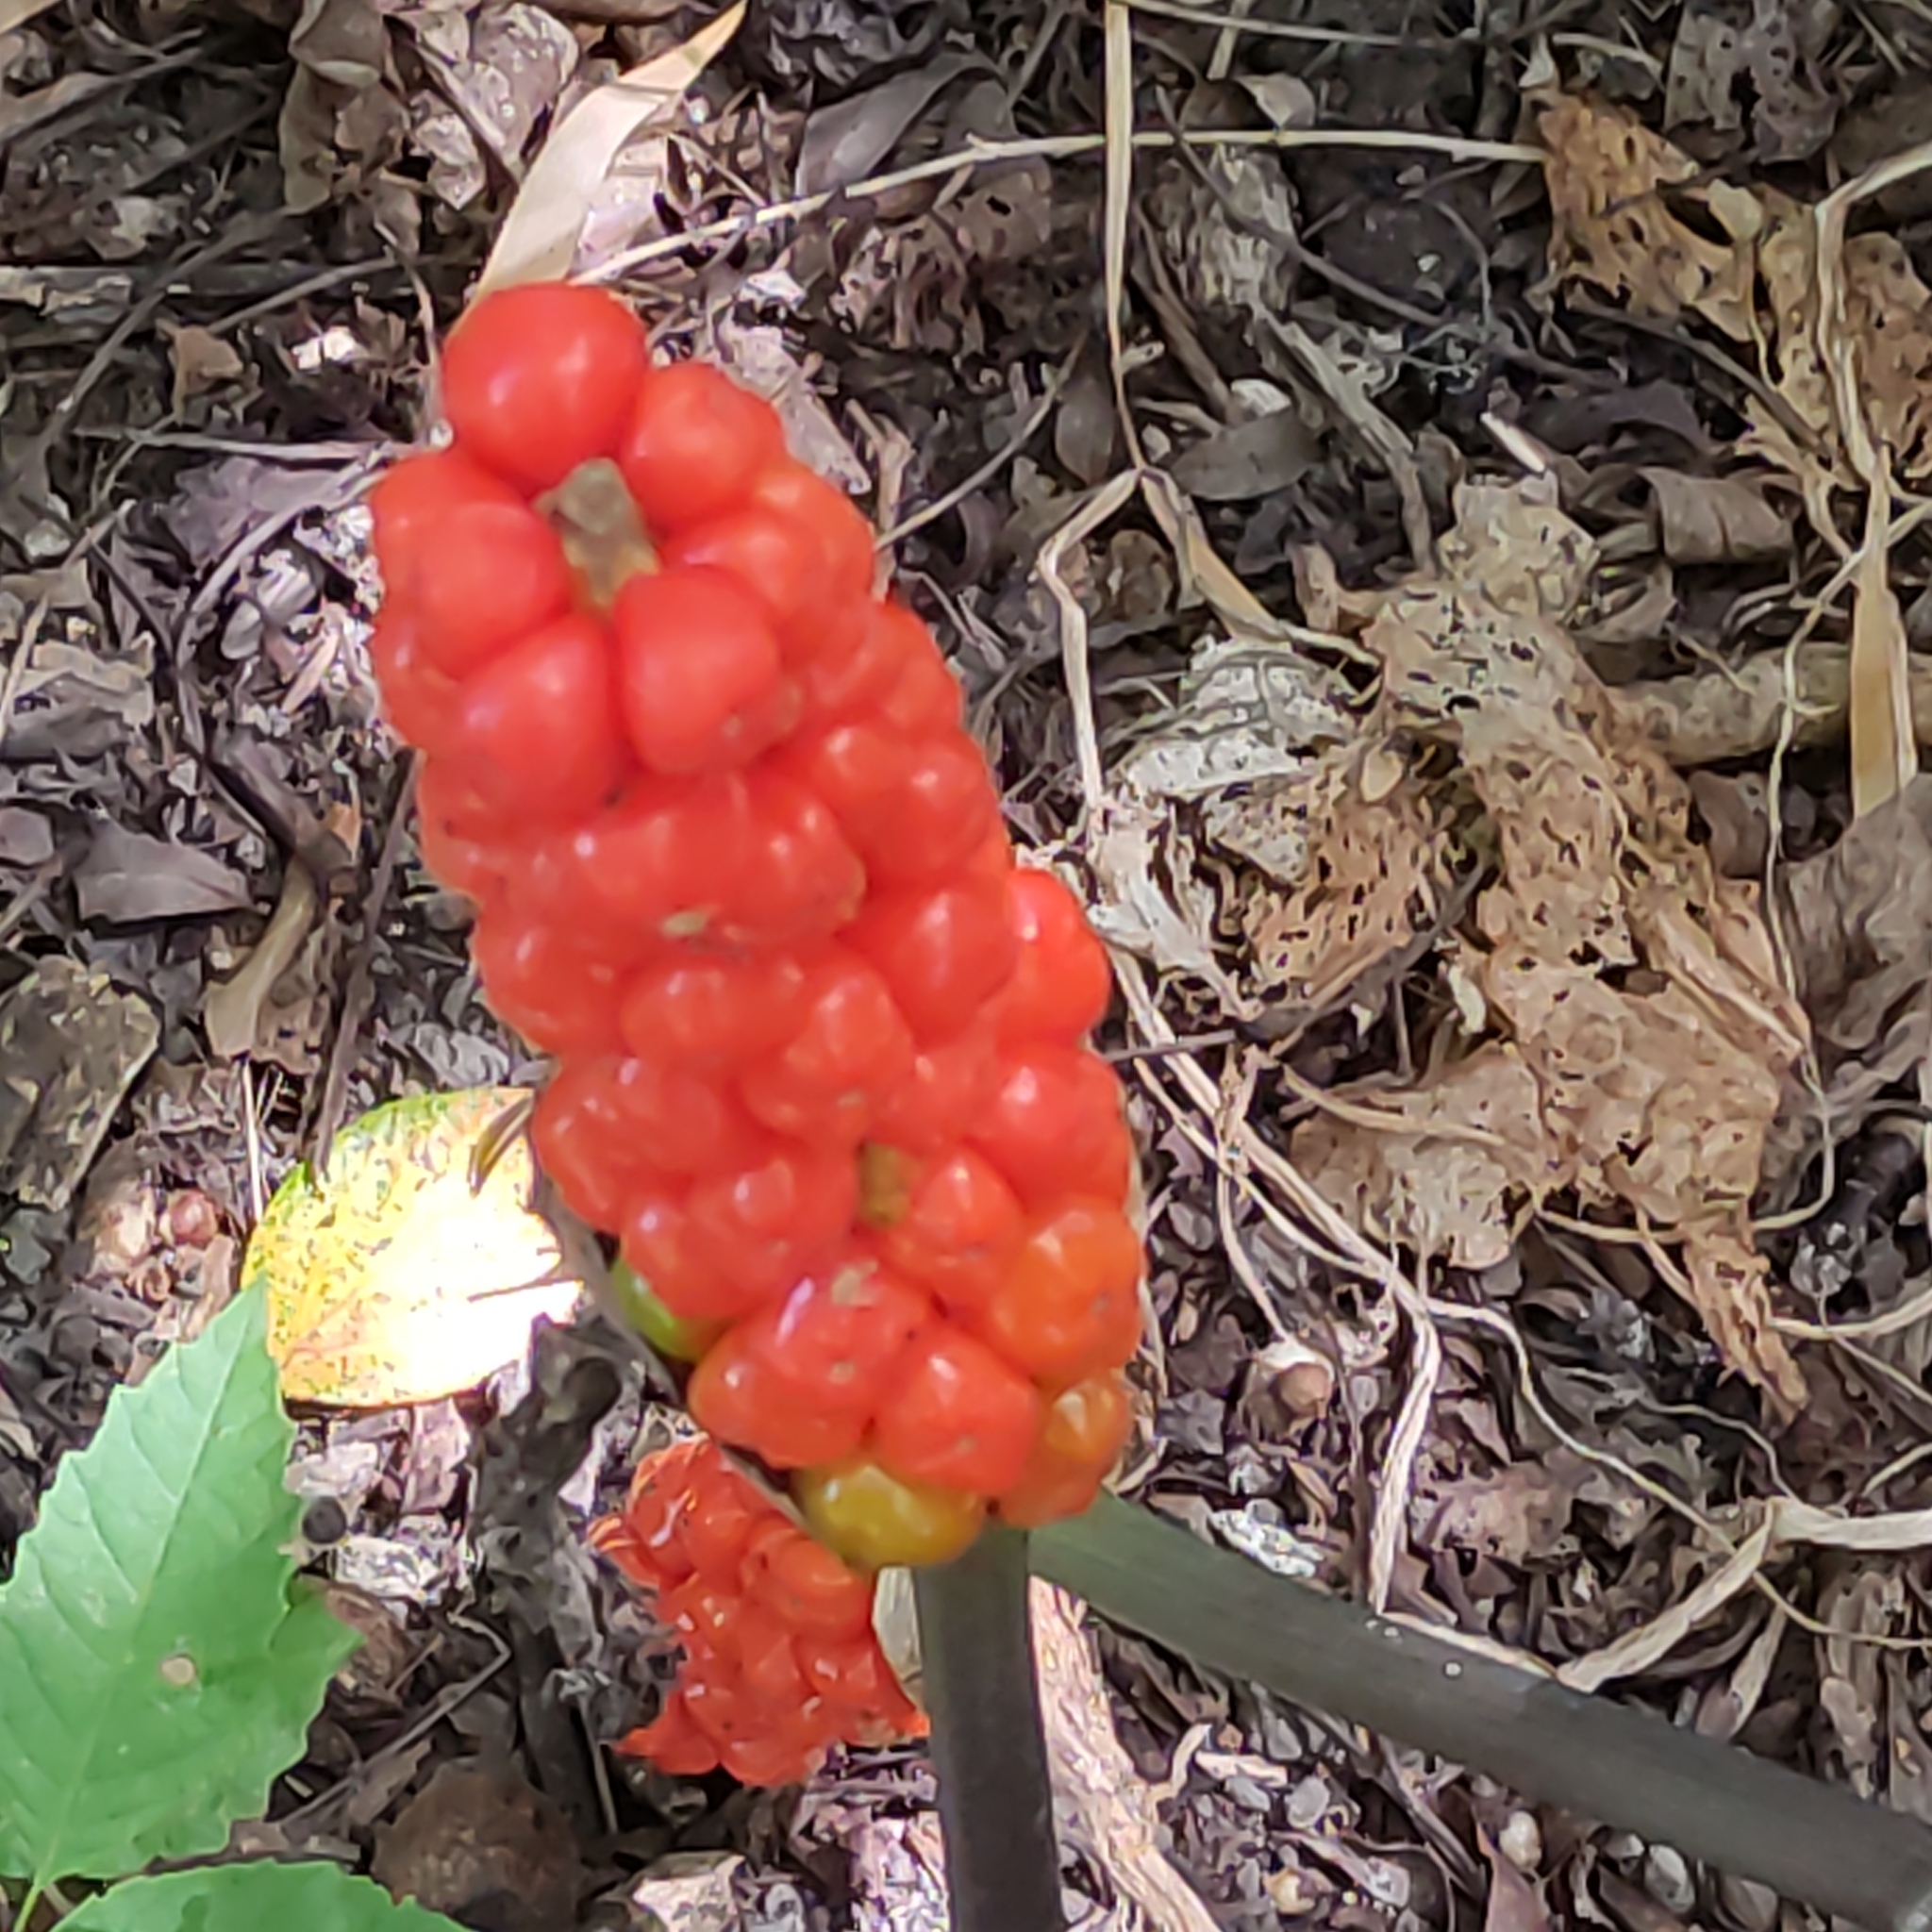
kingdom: Plantae
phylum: Tracheophyta
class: Liliopsida
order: Alismatales
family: Araceae
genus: Arum
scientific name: Arum italicum
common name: Italian lords-and-ladies
